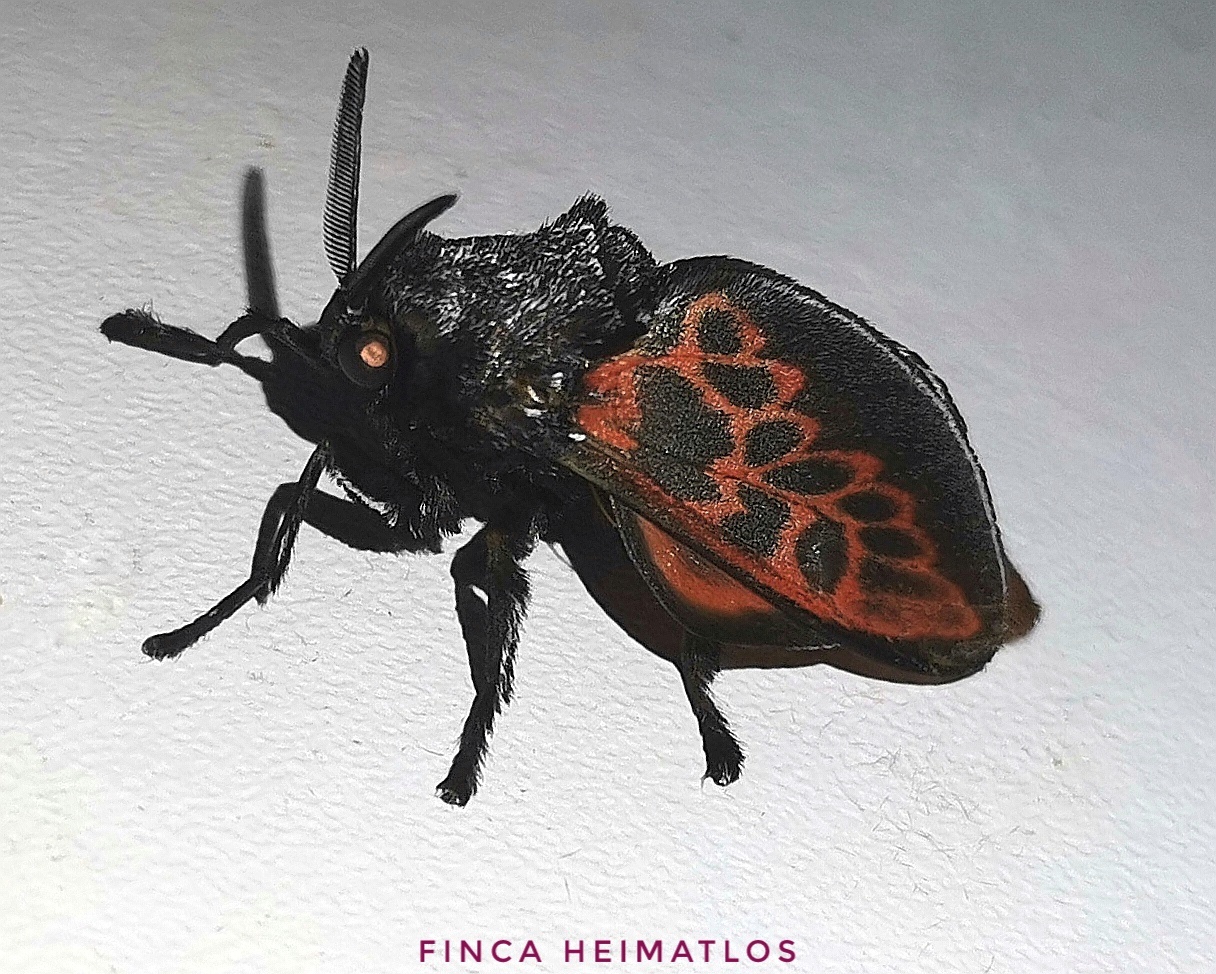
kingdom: Animalia
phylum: Arthropoda
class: Insecta
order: Lepidoptera
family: Megalopygidae
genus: Langucys
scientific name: Langucys bicolor
